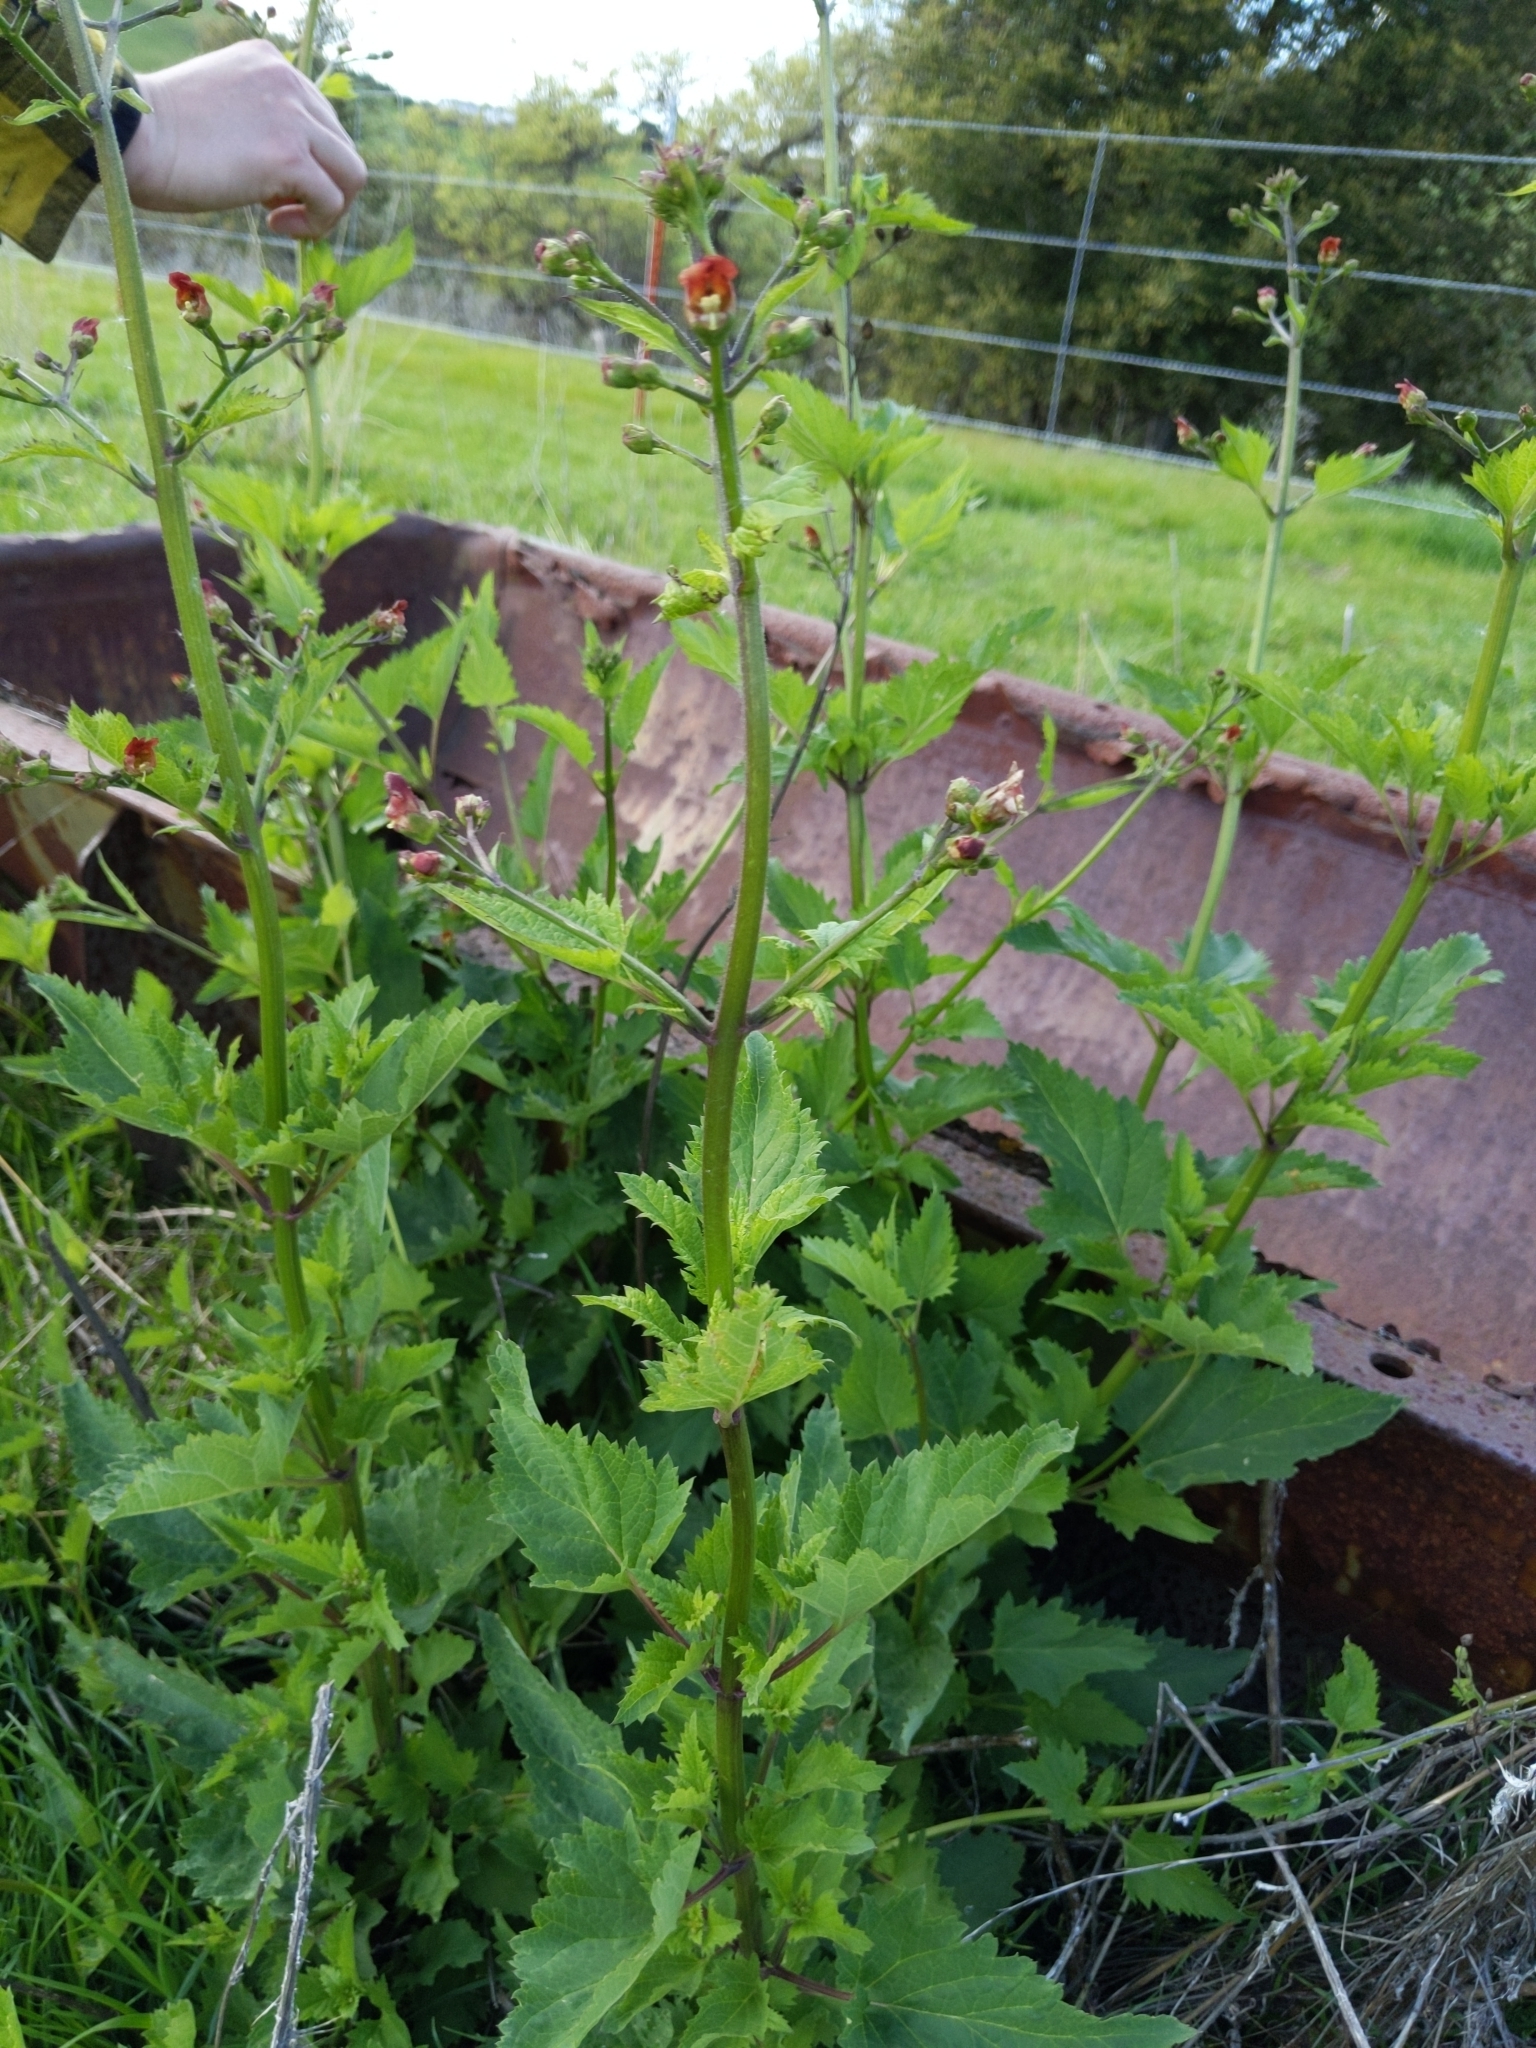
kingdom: Plantae
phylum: Tracheophyta
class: Magnoliopsida
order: Lamiales
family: Scrophulariaceae
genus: Scrophularia
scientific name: Scrophularia californica
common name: California figwort
